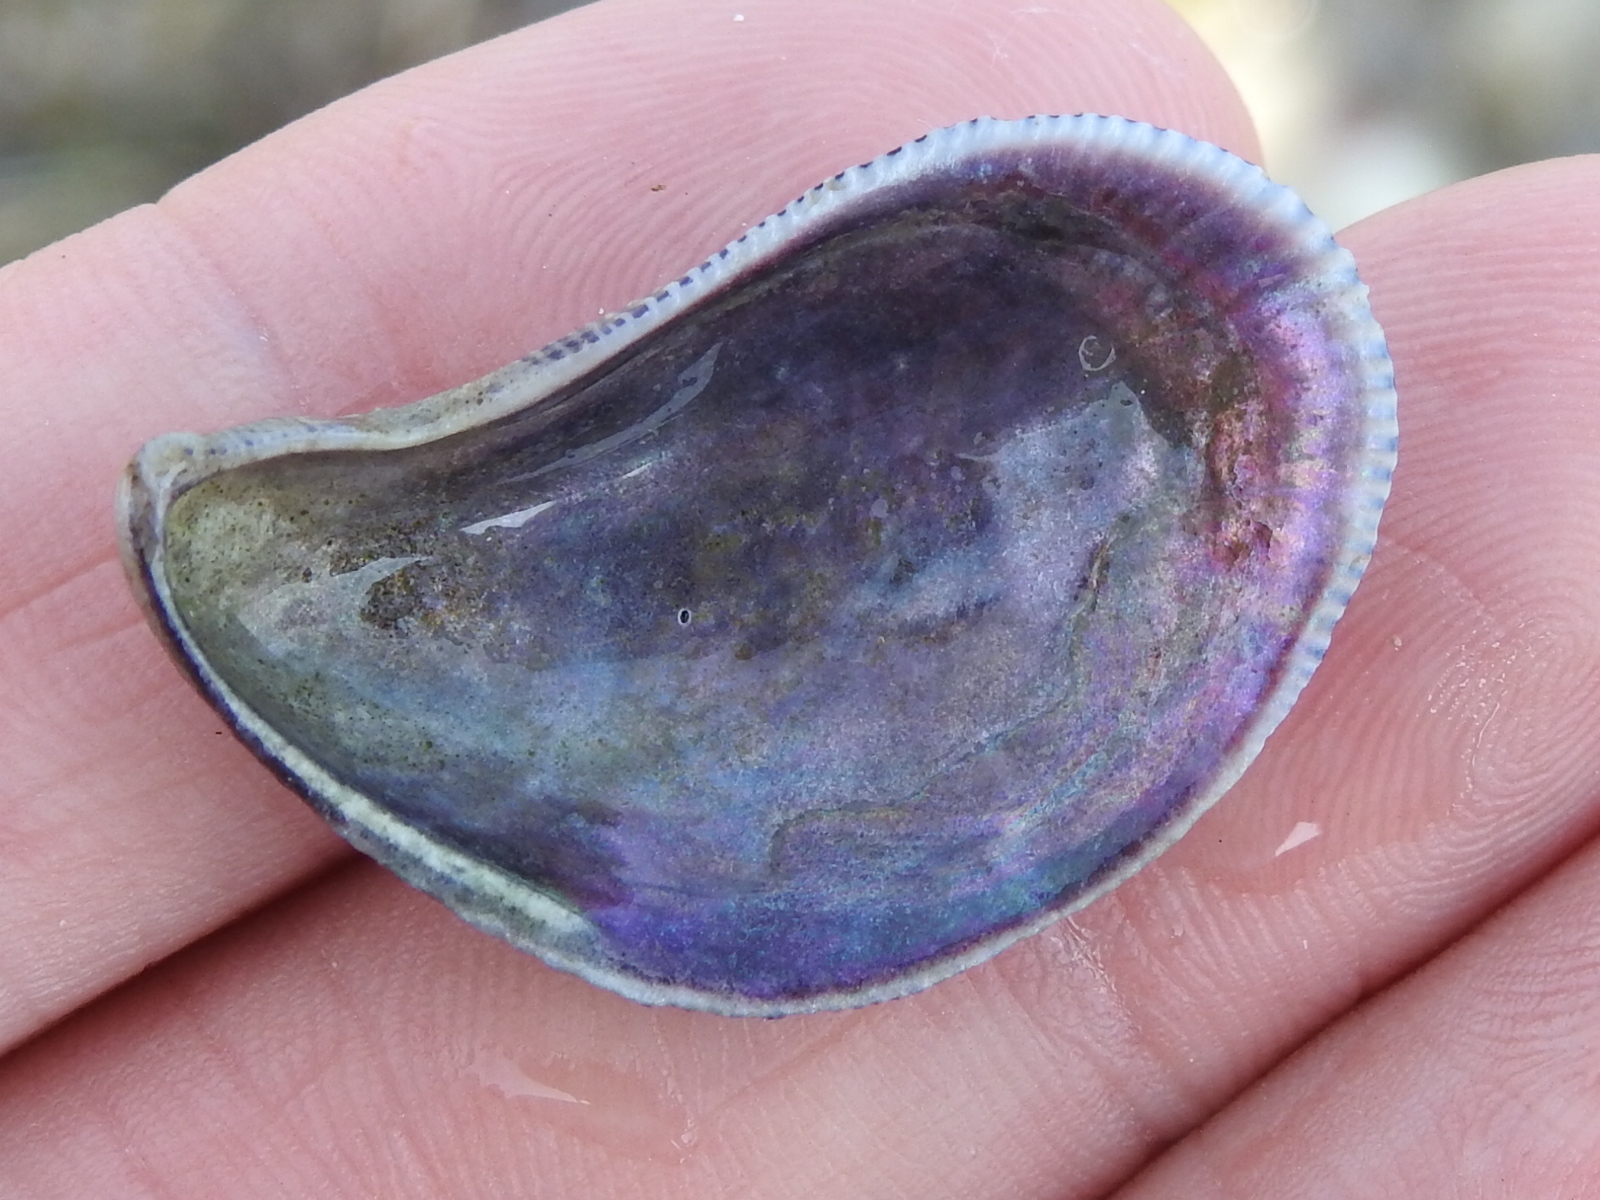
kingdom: Animalia
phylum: Mollusca
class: Bivalvia
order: Mytilida
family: Mytilidae
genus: Ischadium
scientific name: Ischadium recurvum
